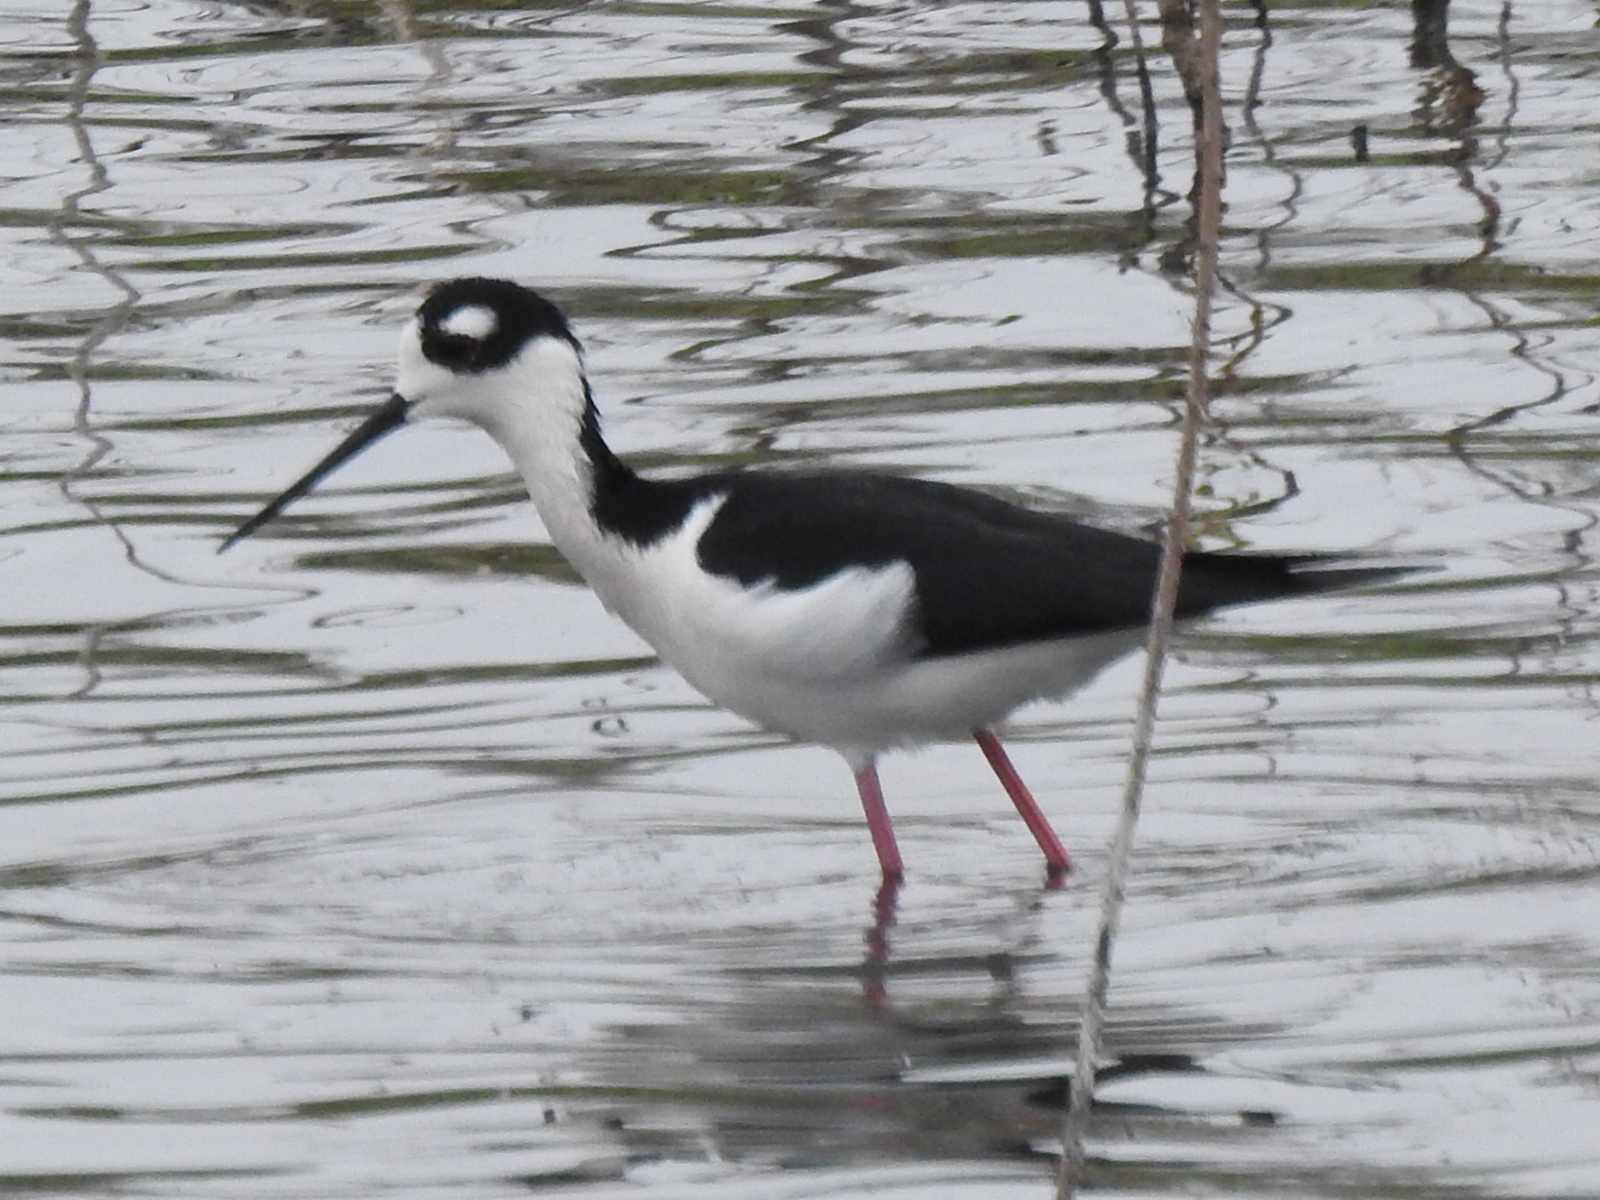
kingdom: Animalia
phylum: Chordata
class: Aves
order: Charadriiformes
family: Recurvirostridae
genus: Himantopus
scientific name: Himantopus mexicanus
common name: Black-necked stilt
